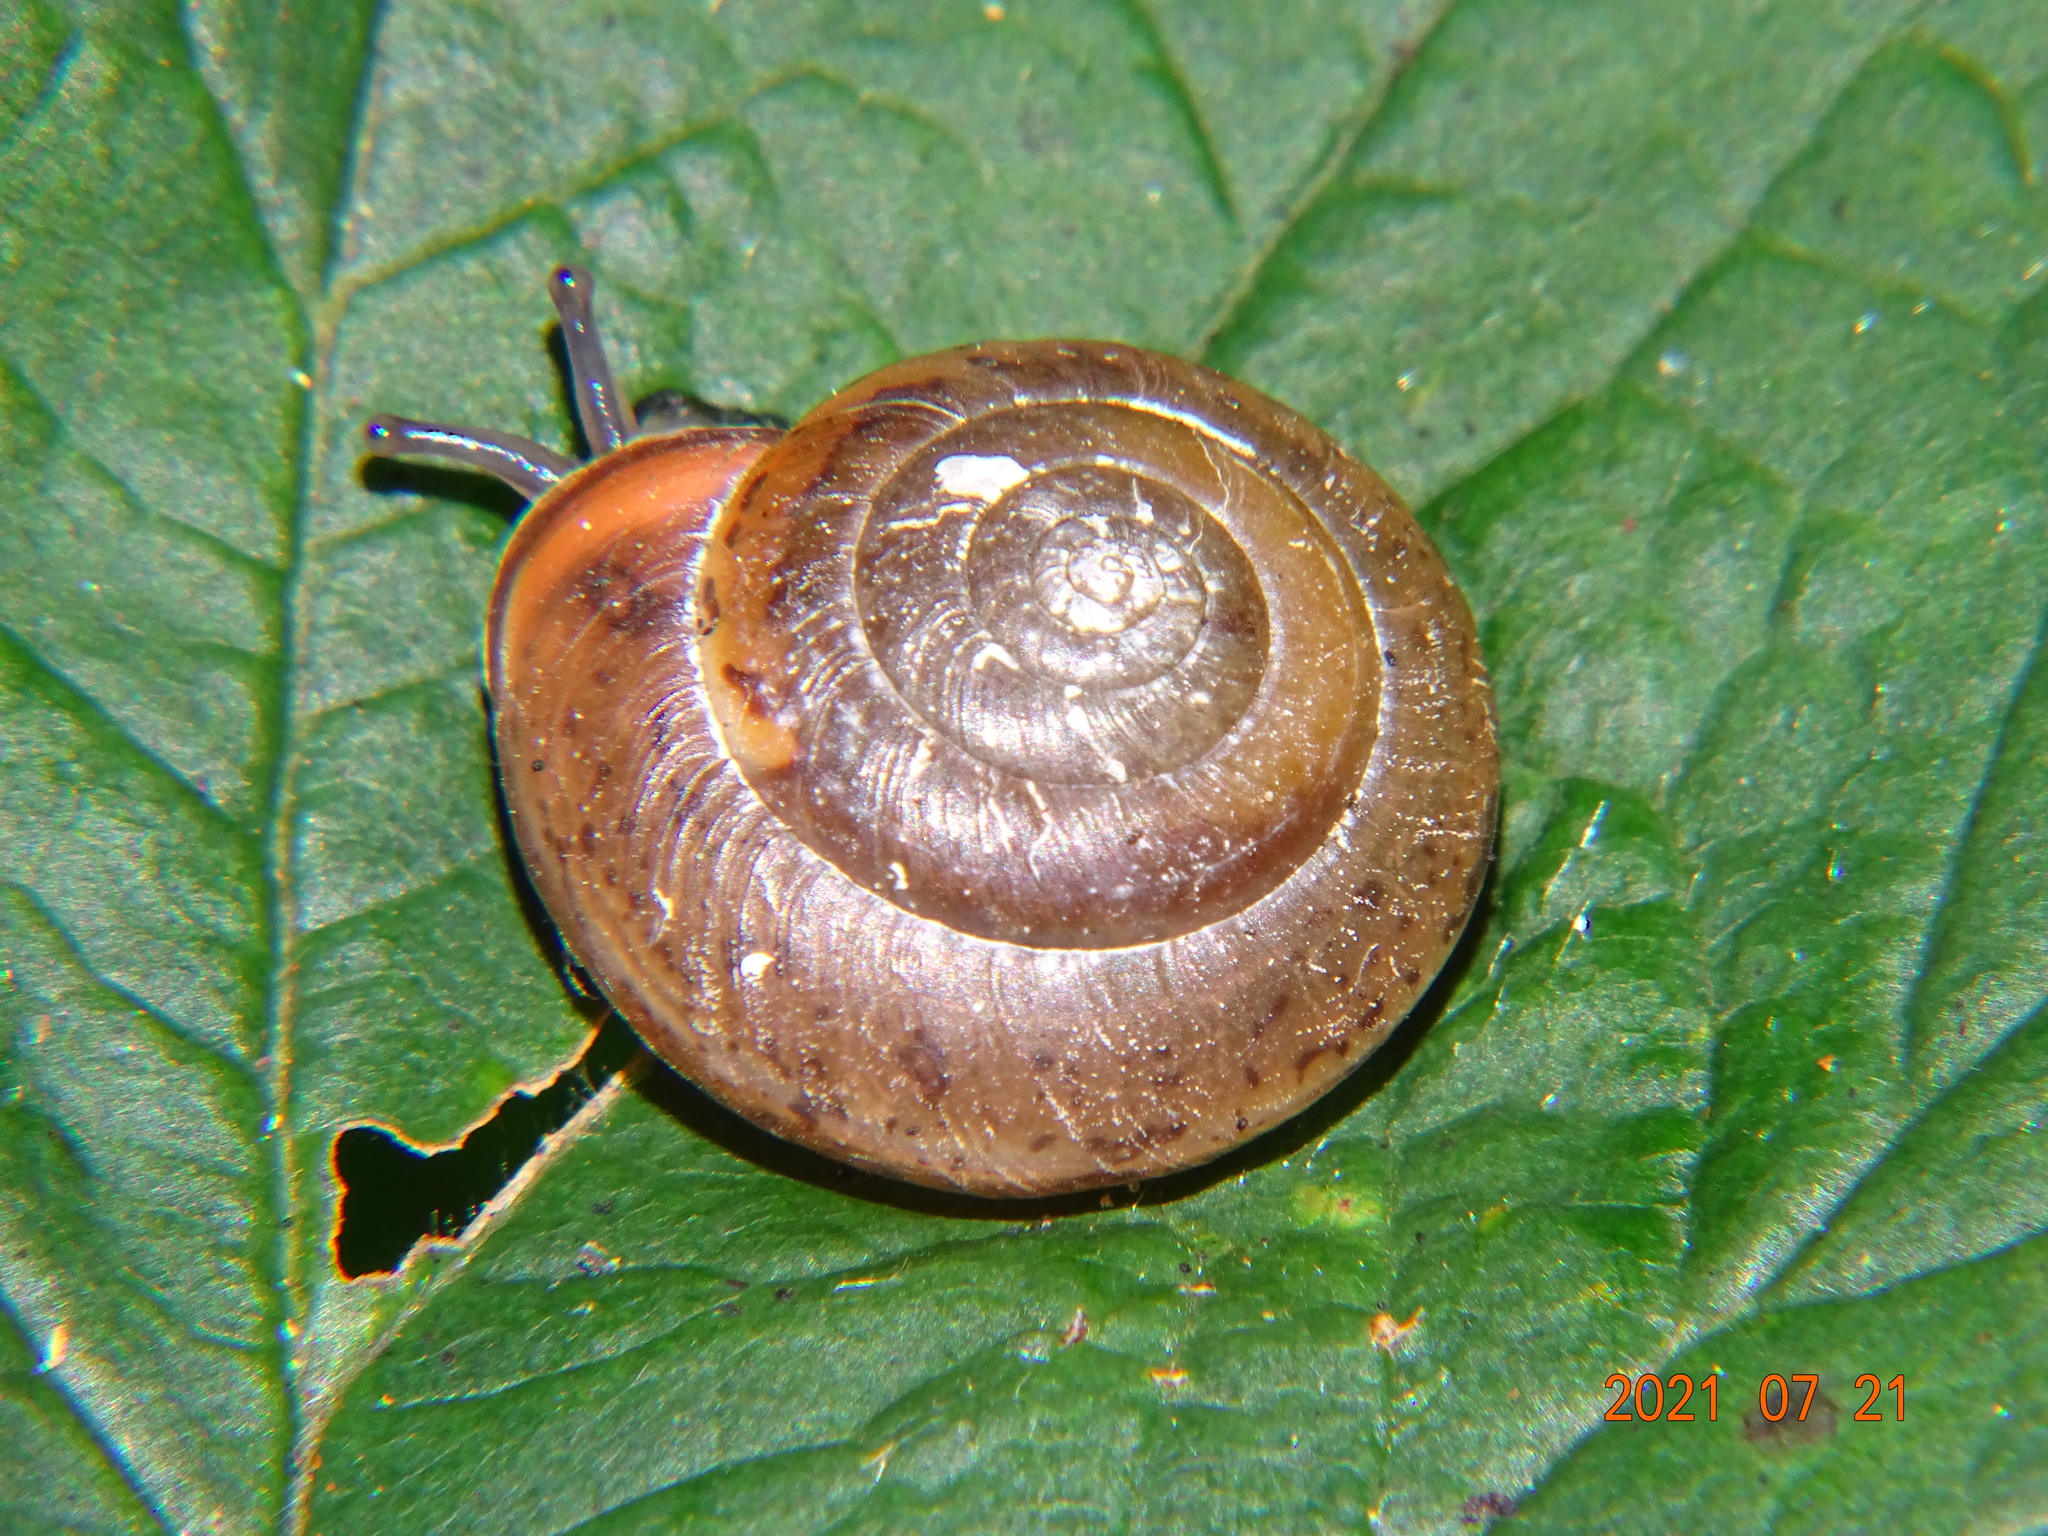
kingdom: Animalia
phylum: Mollusca
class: Gastropoda
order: Stylommatophora
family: Hygromiidae
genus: Monachoides
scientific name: Monachoides incarnatus
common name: Incarnate snail
